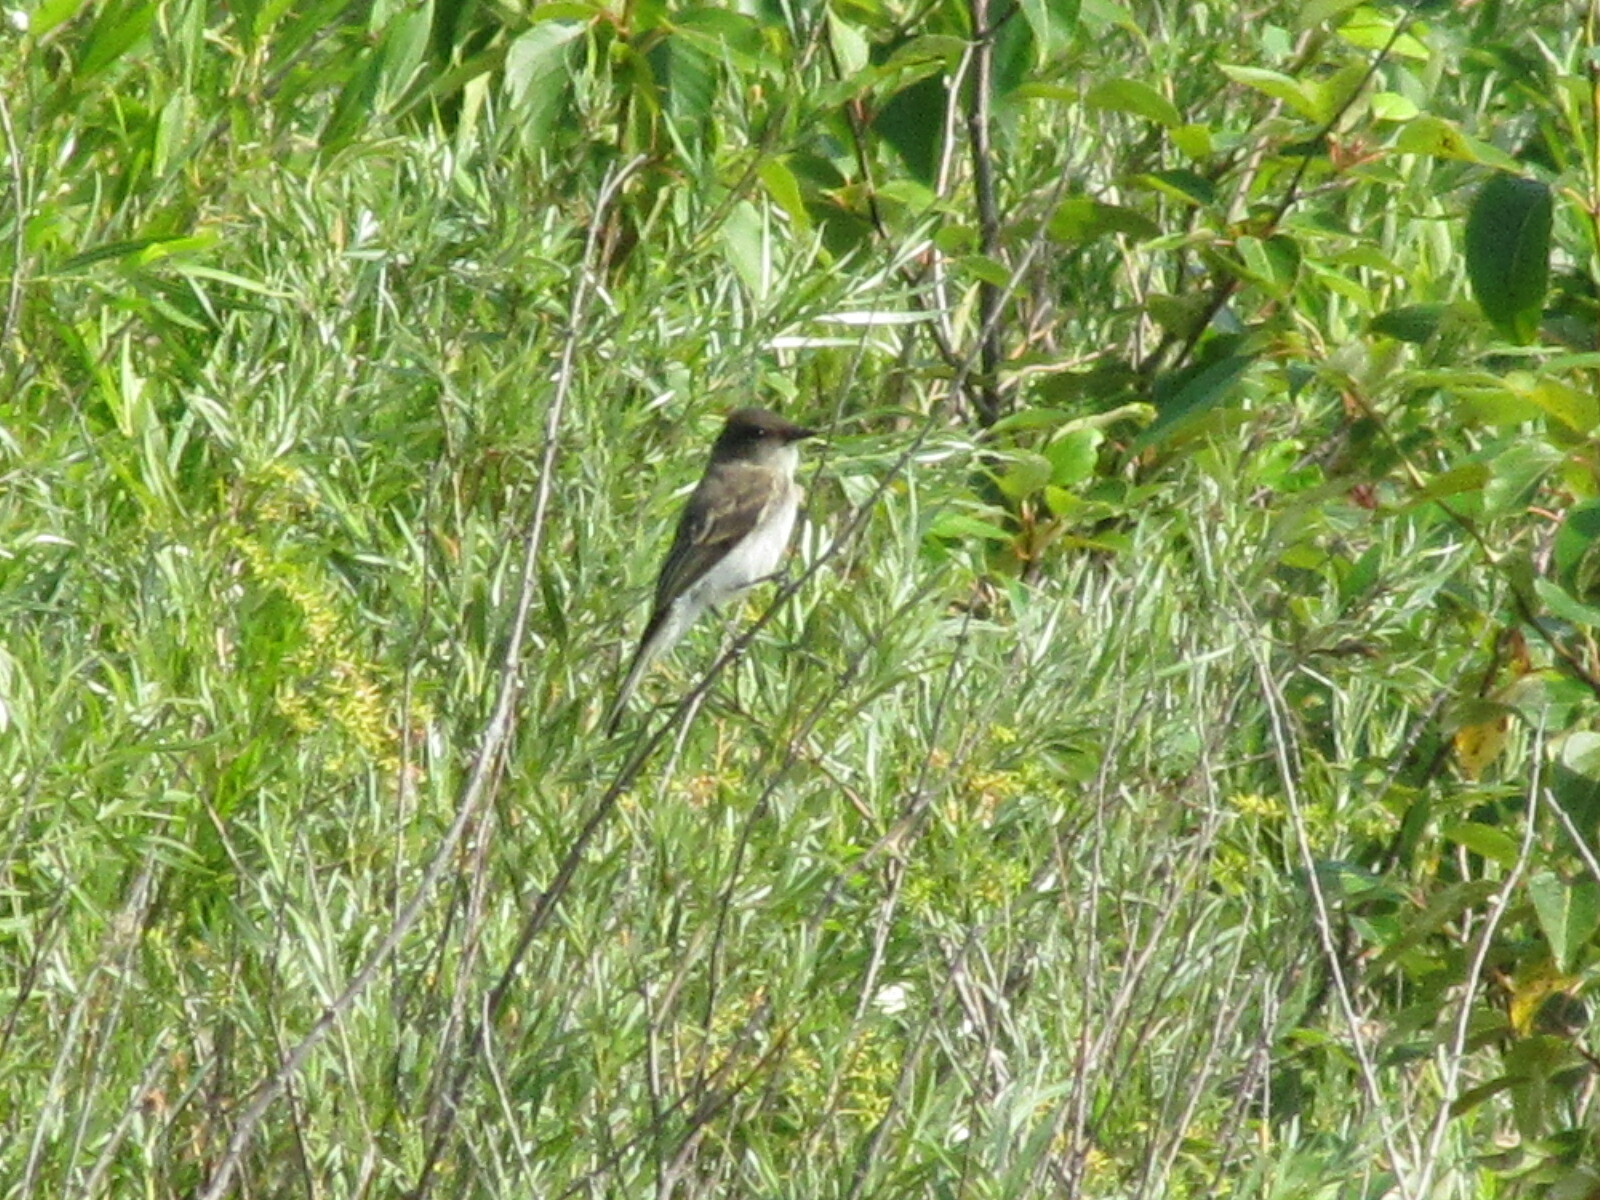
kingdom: Animalia
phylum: Chordata
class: Aves
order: Passeriformes
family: Tyrannidae
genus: Sayornis
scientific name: Sayornis phoebe
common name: Eastern phoebe
